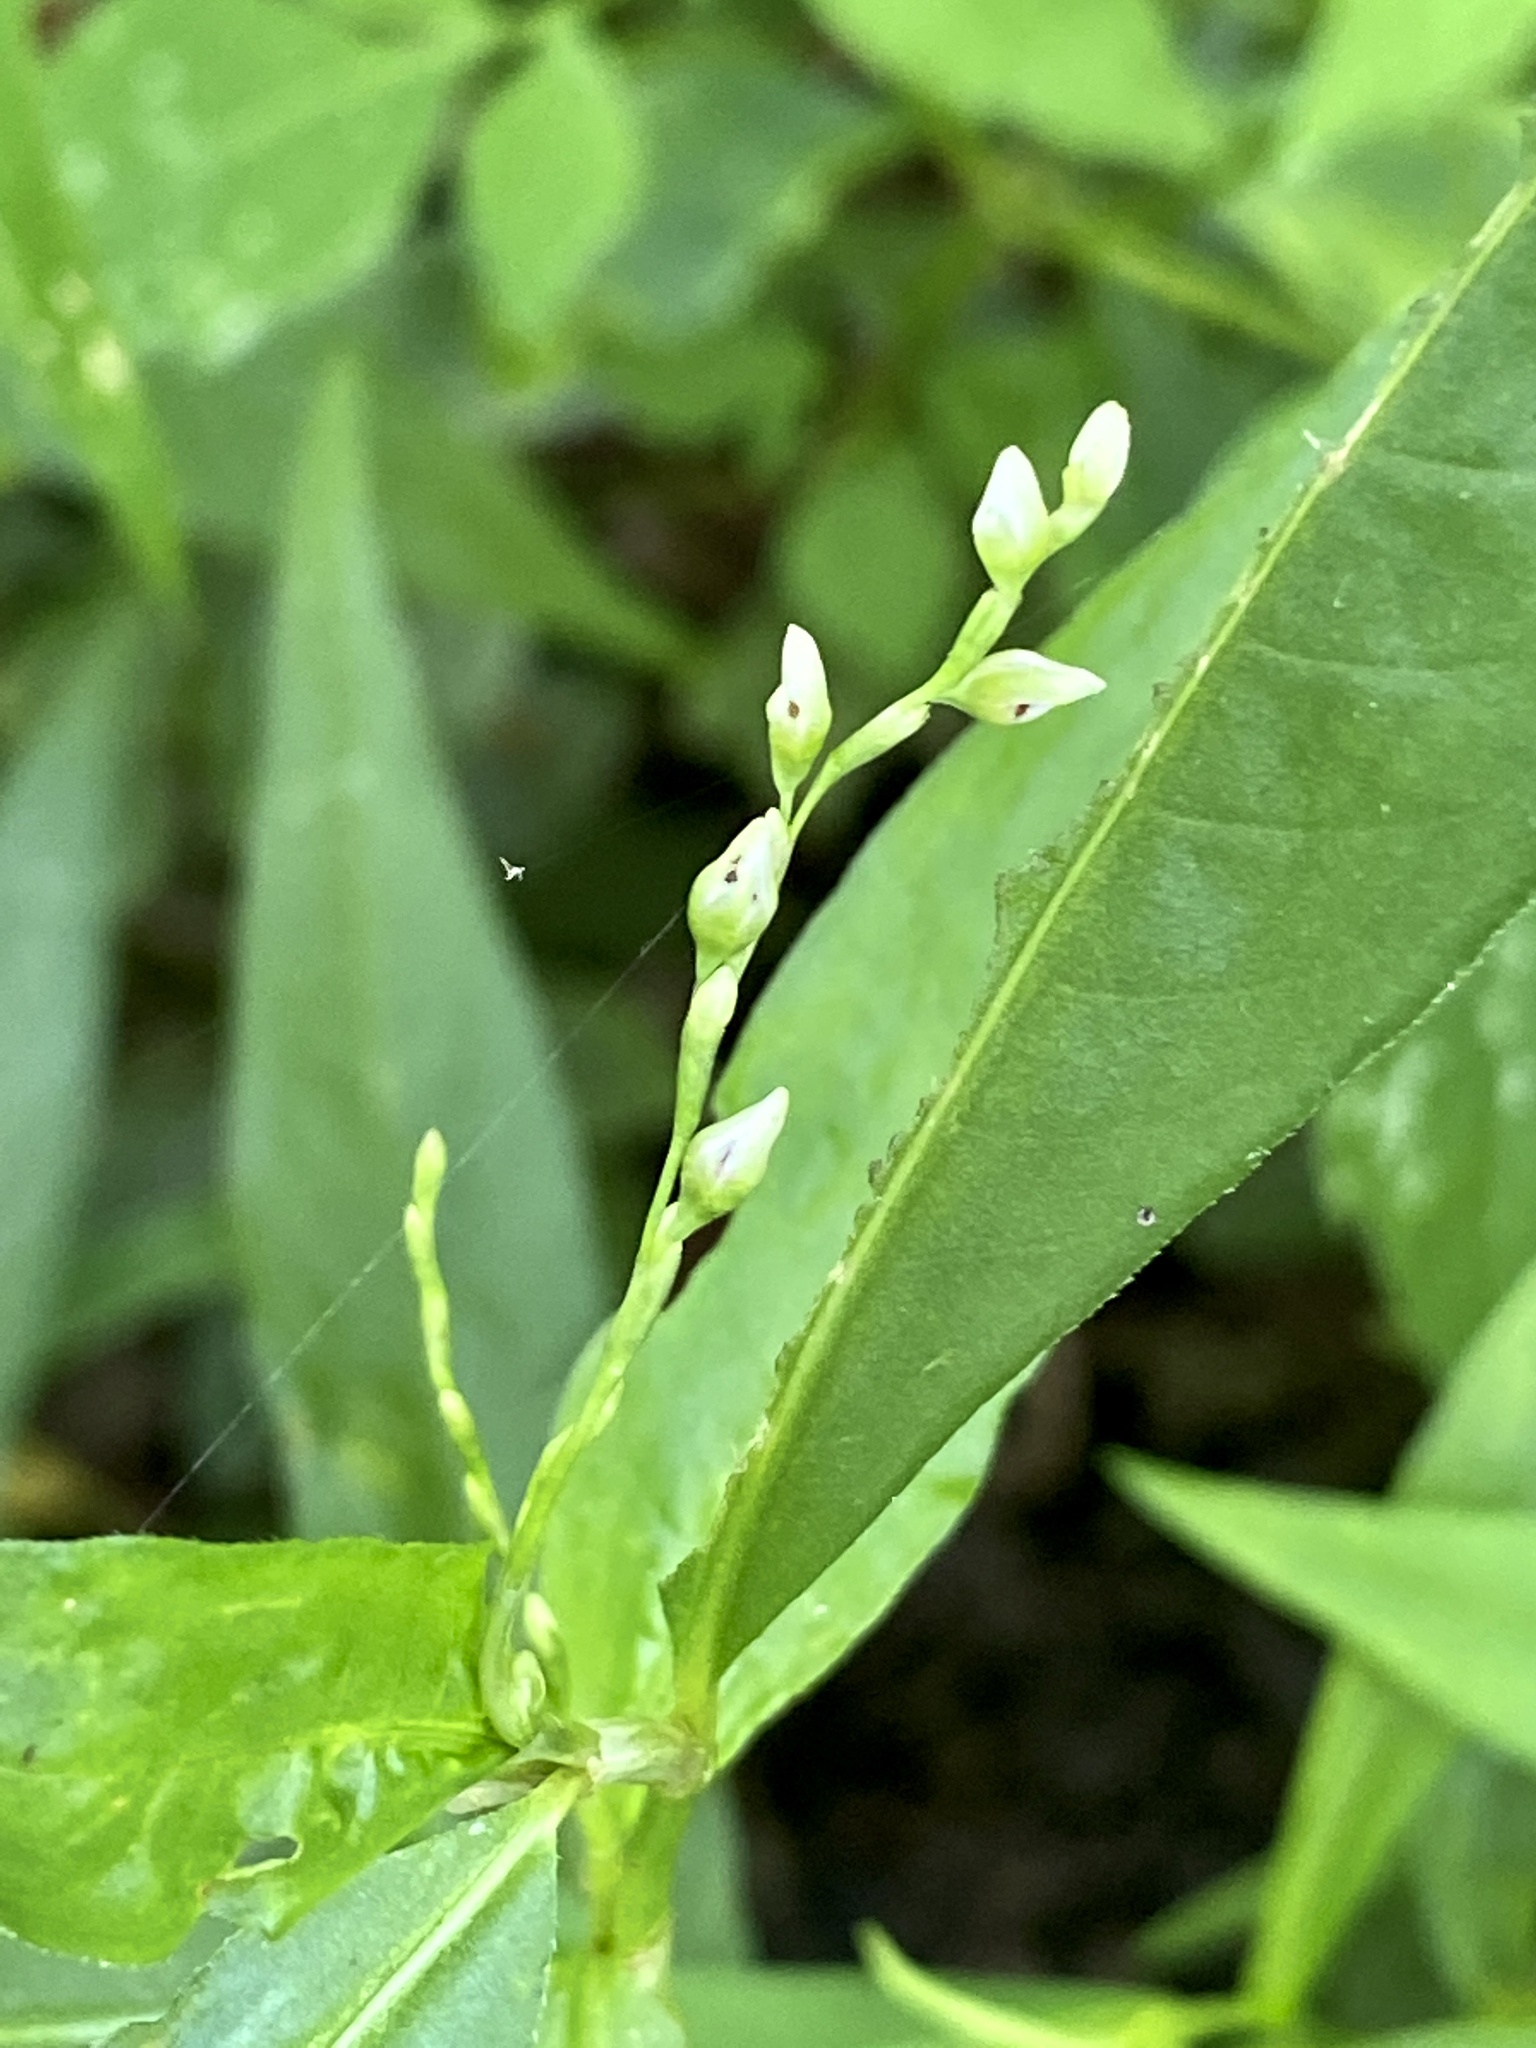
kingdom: Plantae
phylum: Tracheophyta
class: Magnoliopsida
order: Caryophyllales
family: Polygonaceae
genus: Persicaria
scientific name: Persicaria punctata
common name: Dotted smartweed
